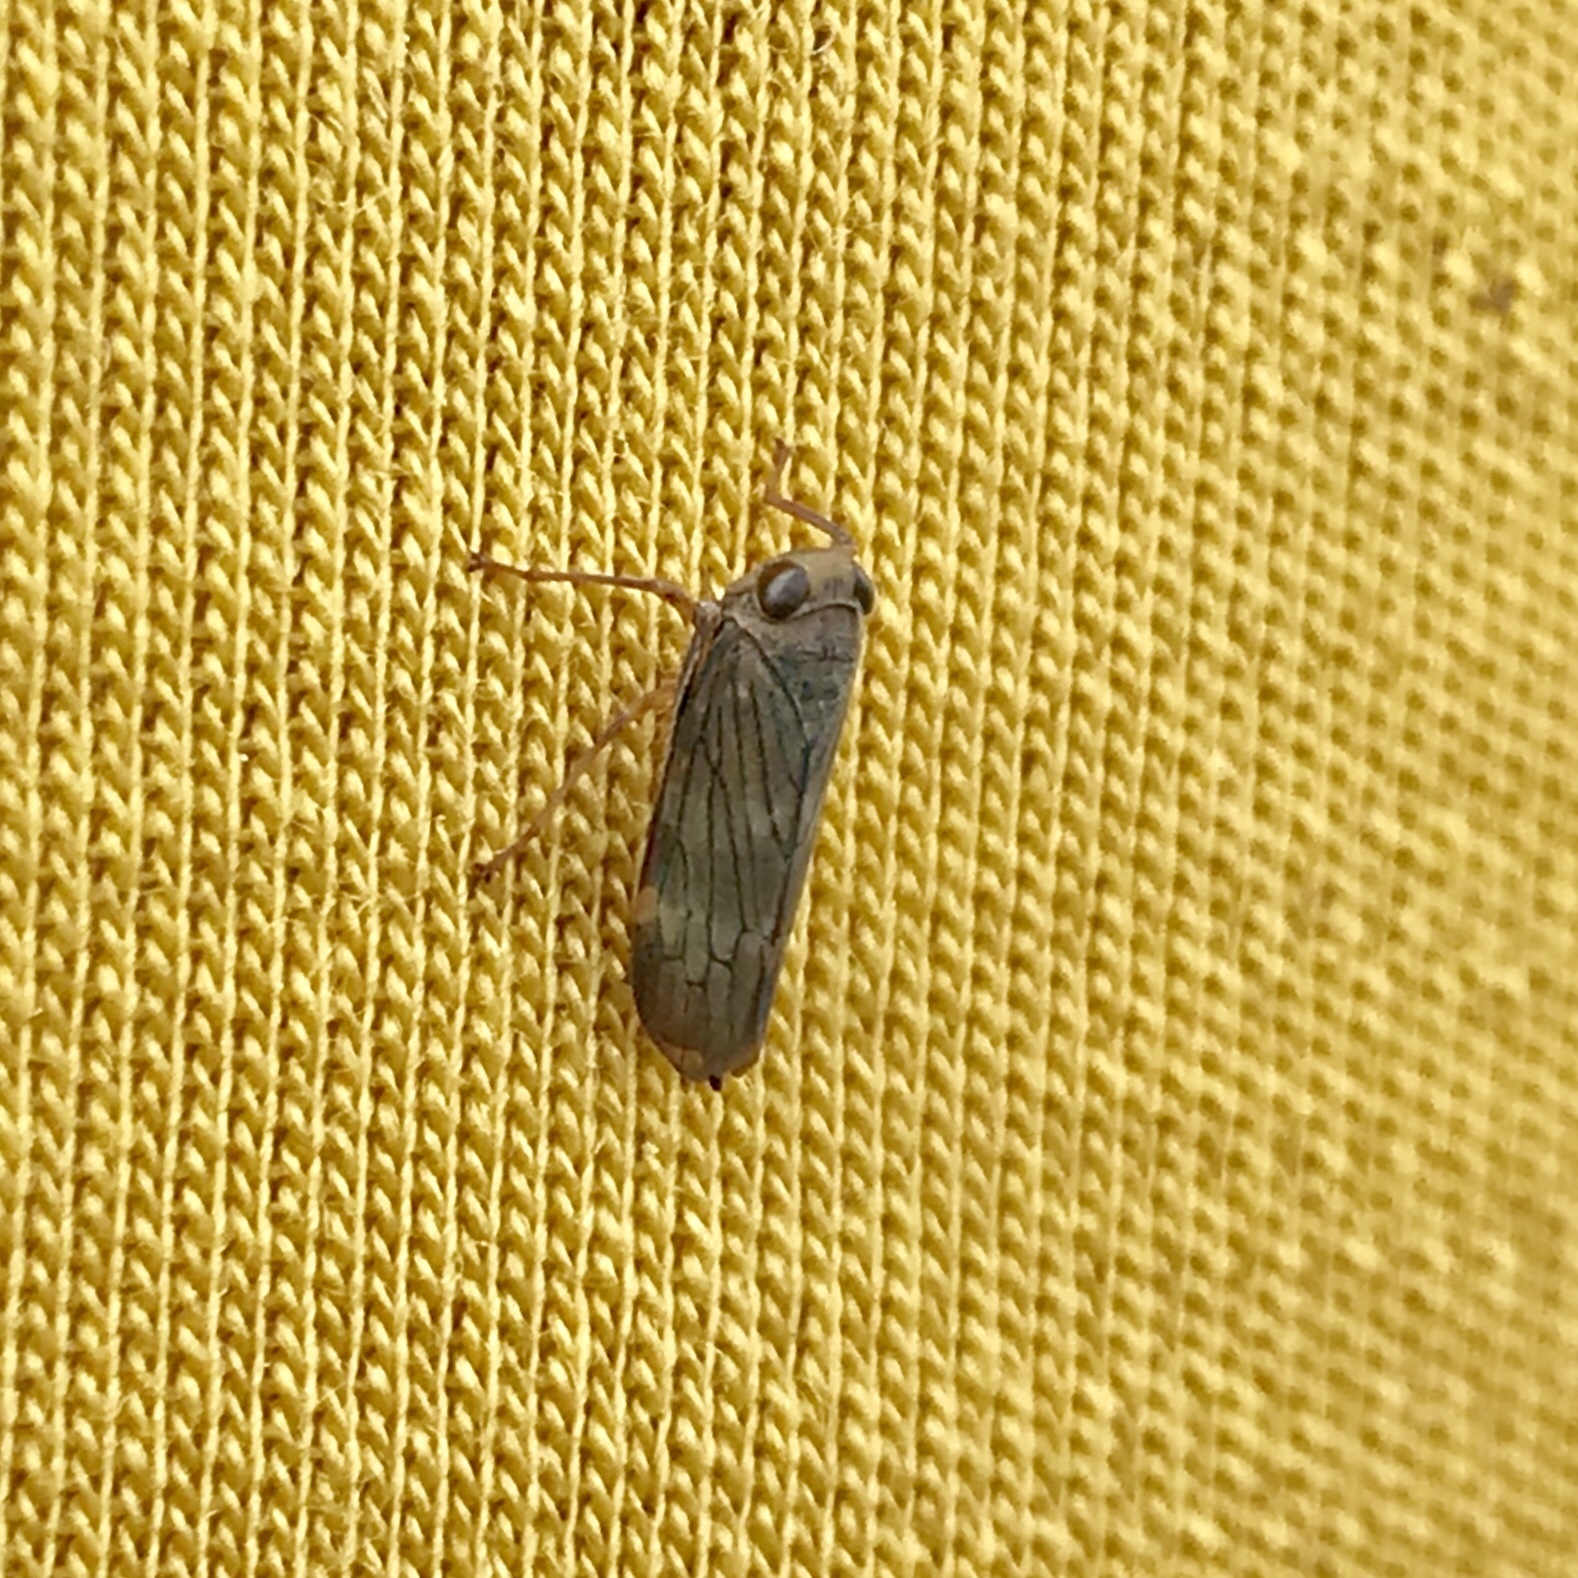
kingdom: Animalia
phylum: Arthropoda
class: Insecta
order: Hemiptera
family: Cicadellidae
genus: Jikradia
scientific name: Jikradia olitoria
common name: Coppery leafhopper
